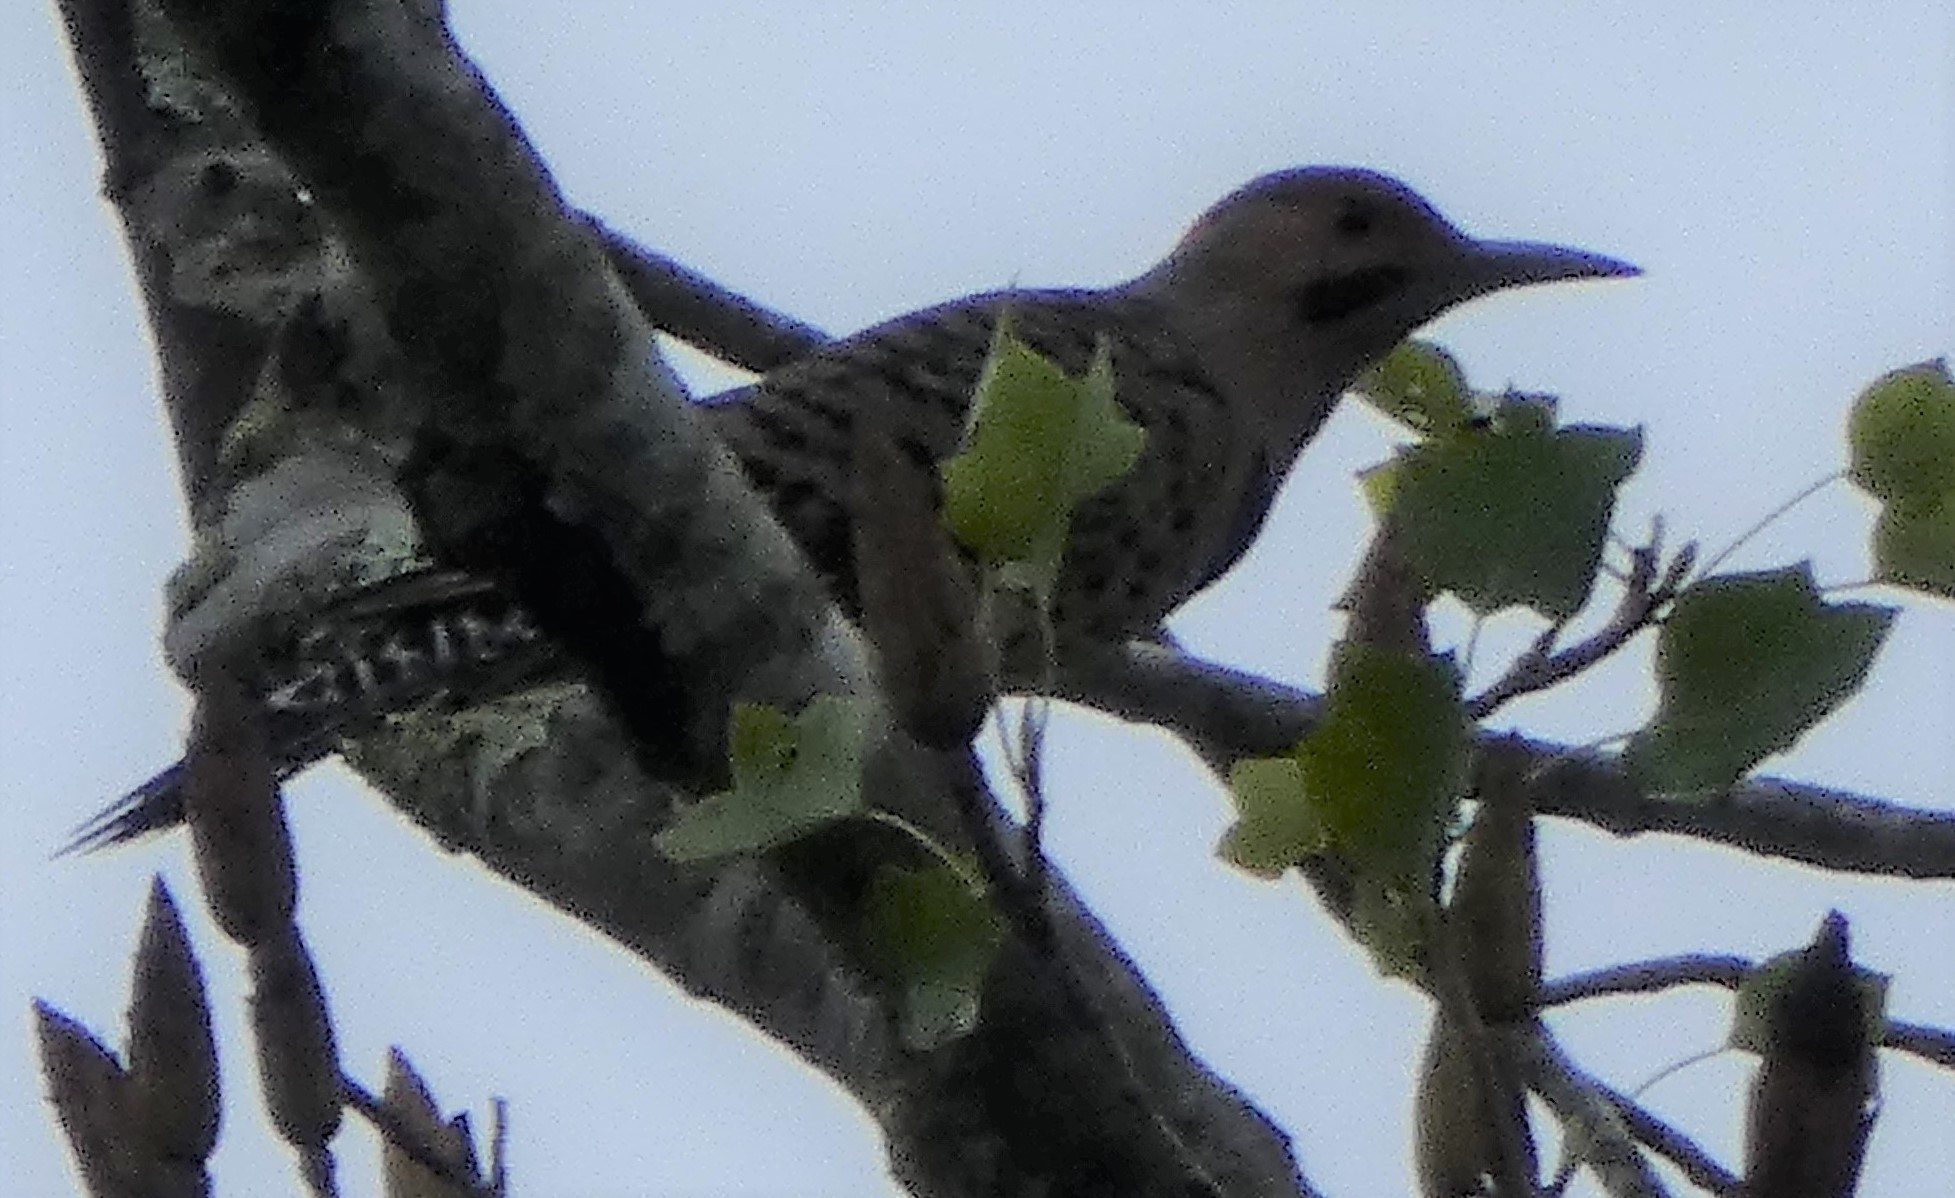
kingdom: Animalia
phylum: Chordata
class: Aves
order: Piciformes
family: Picidae
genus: Colaptes
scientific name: Colaptes auratus
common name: Northern flicker
